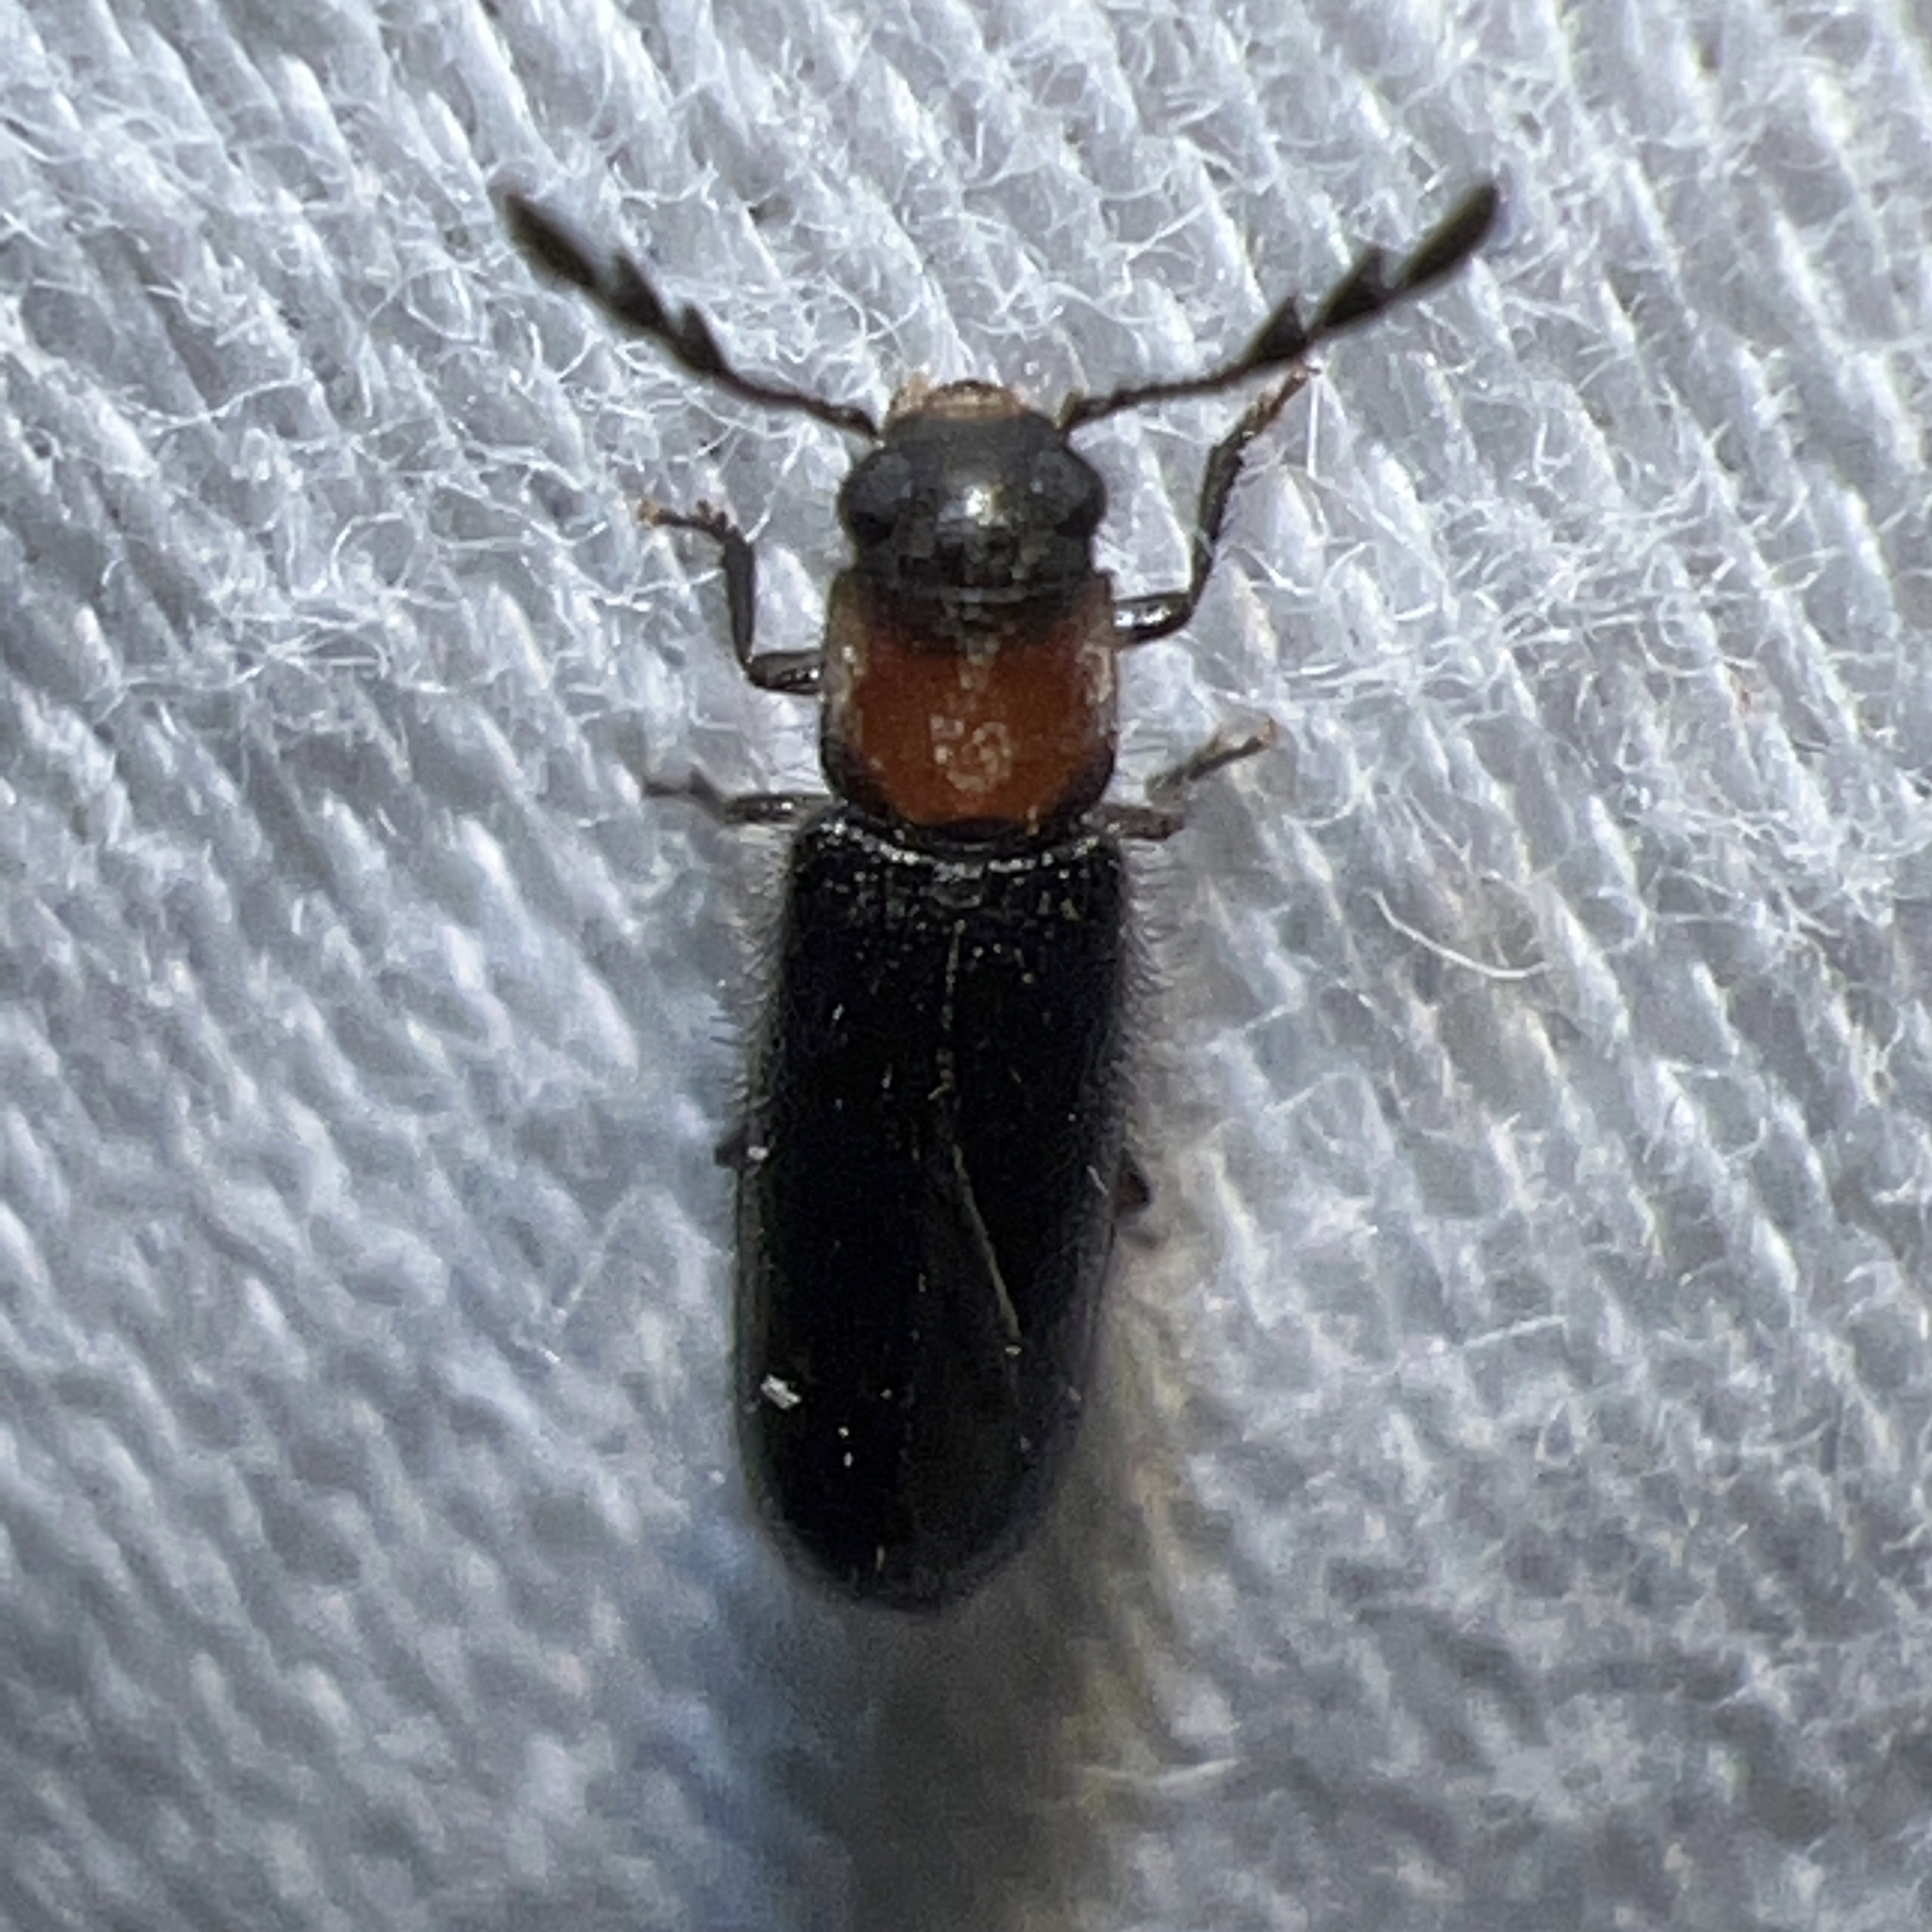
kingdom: Animalia
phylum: Arthropoda
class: Insecta
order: Coleoptera
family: Cleridae
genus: Placopterus
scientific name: Placopterus thoracicus
